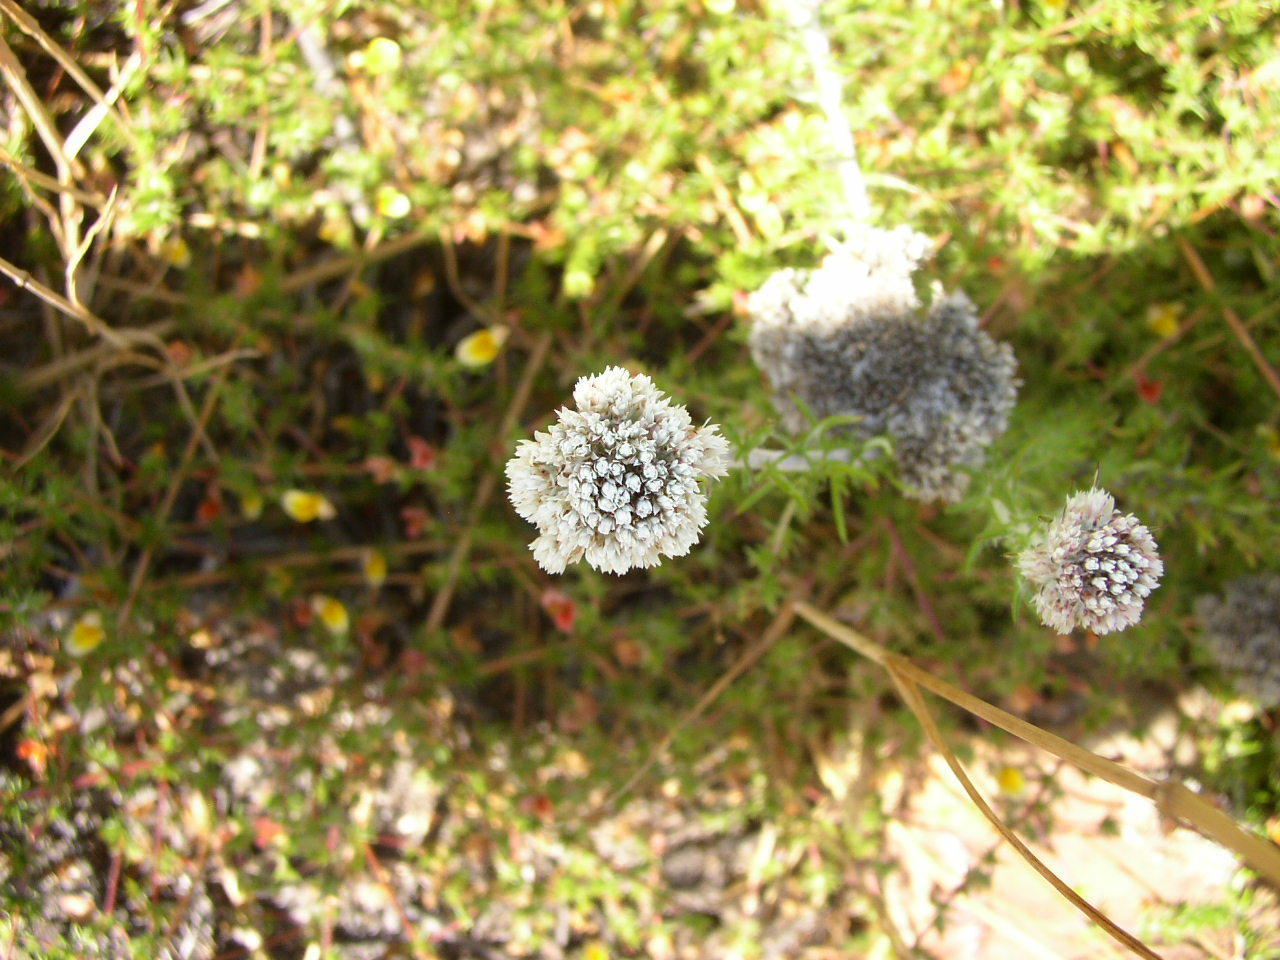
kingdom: Plantae
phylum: Tracheophyta
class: Magnoliopsida
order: Asterales
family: Asteraceae
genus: Metalasia
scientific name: Metalasia densa
